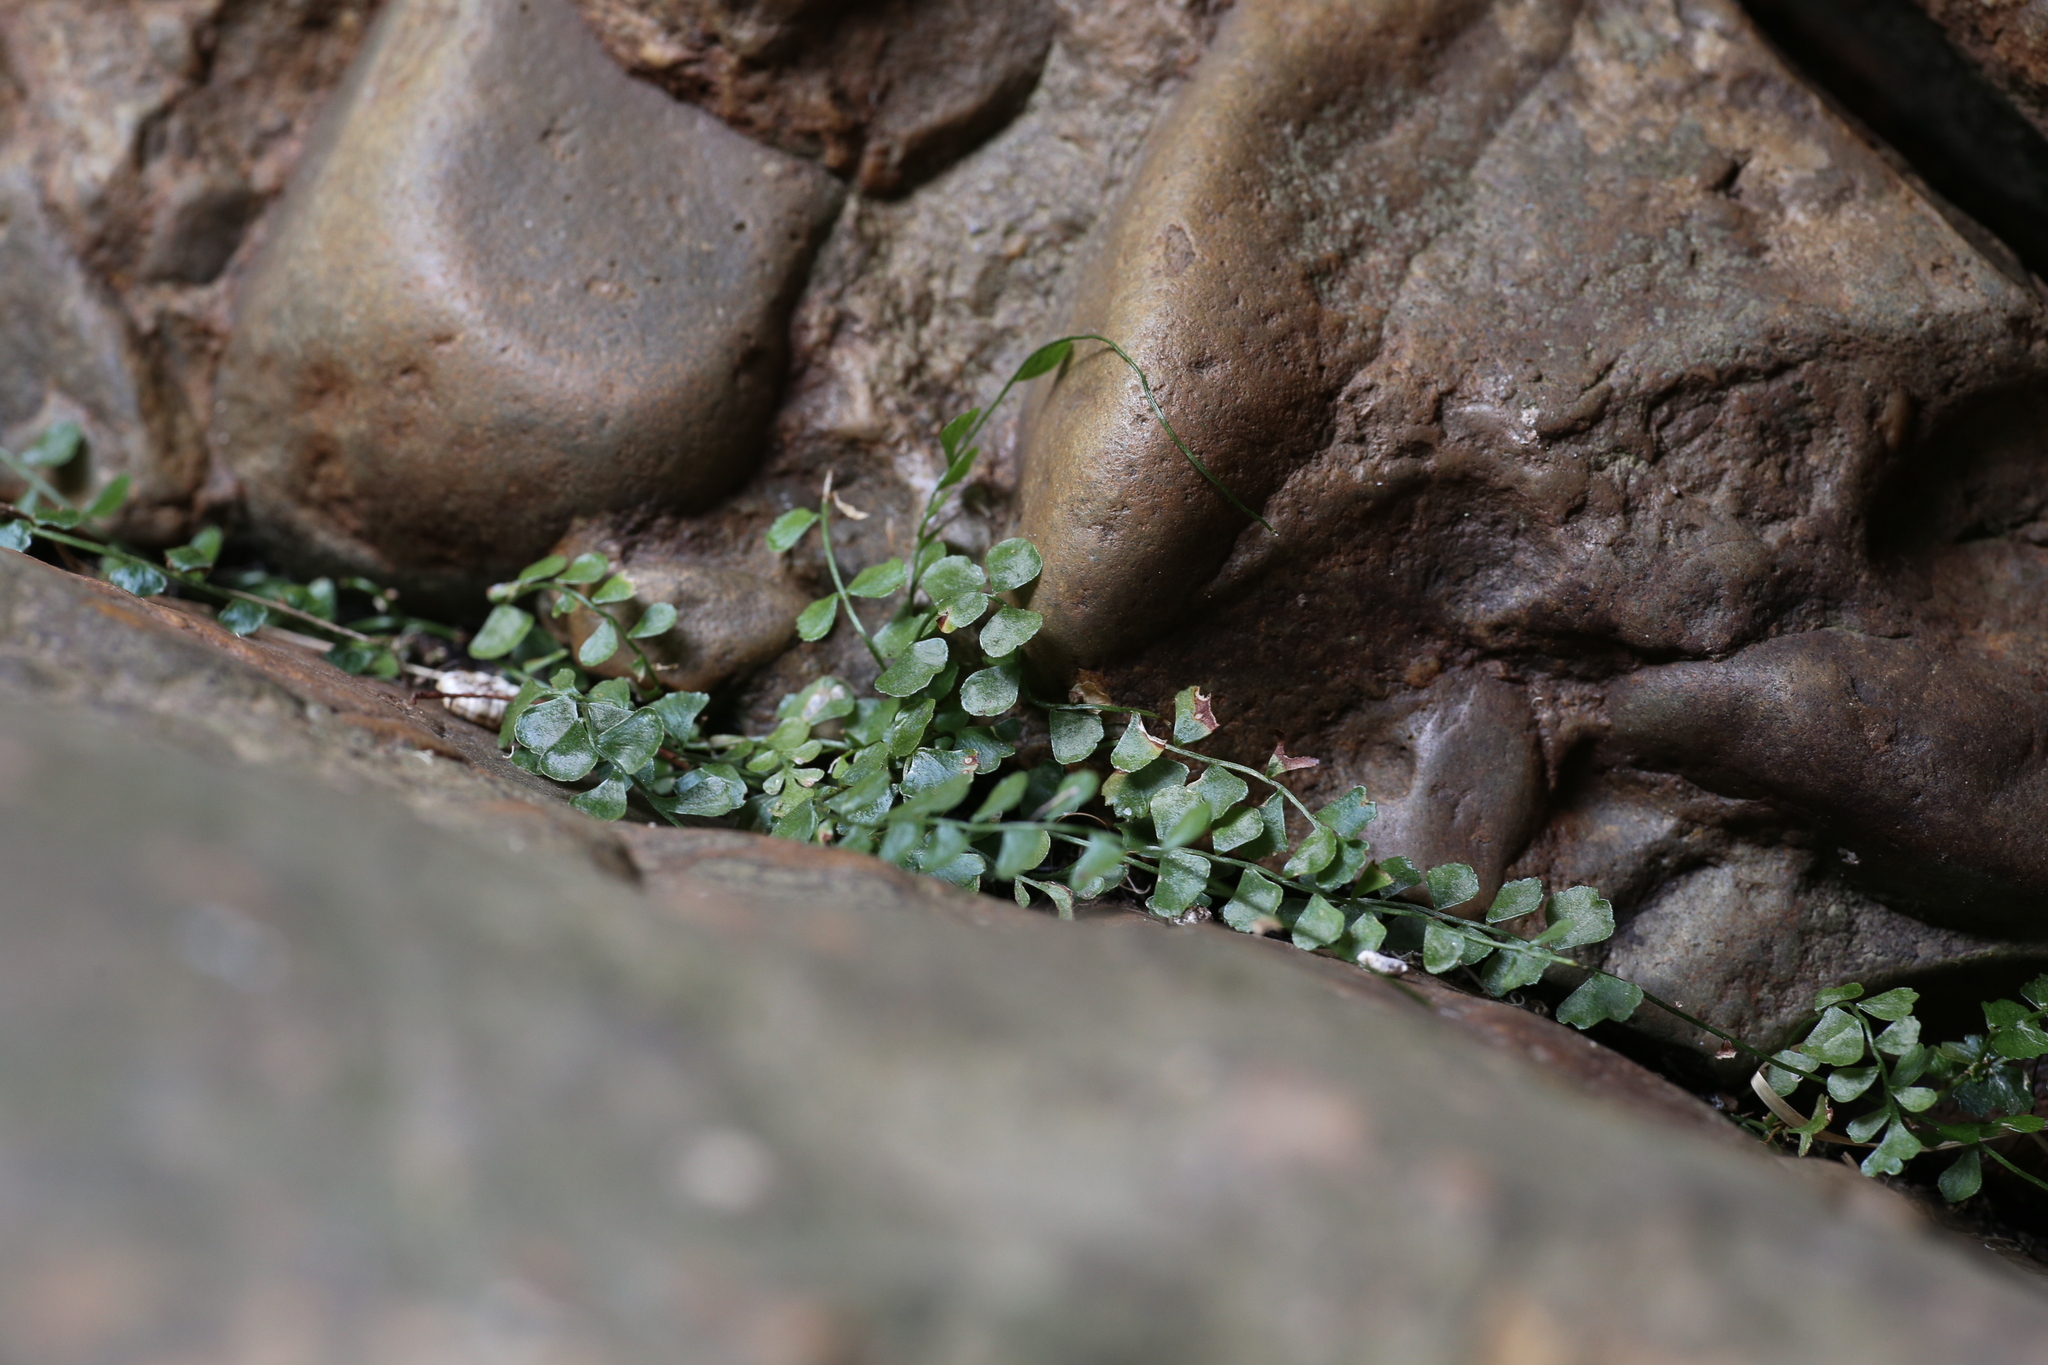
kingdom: Plantae
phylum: Tracheophyta
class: Polypodiopsida
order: Polypodiales
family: Aspleniaceae
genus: Asplenium
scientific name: Asplenium flabellifolium
